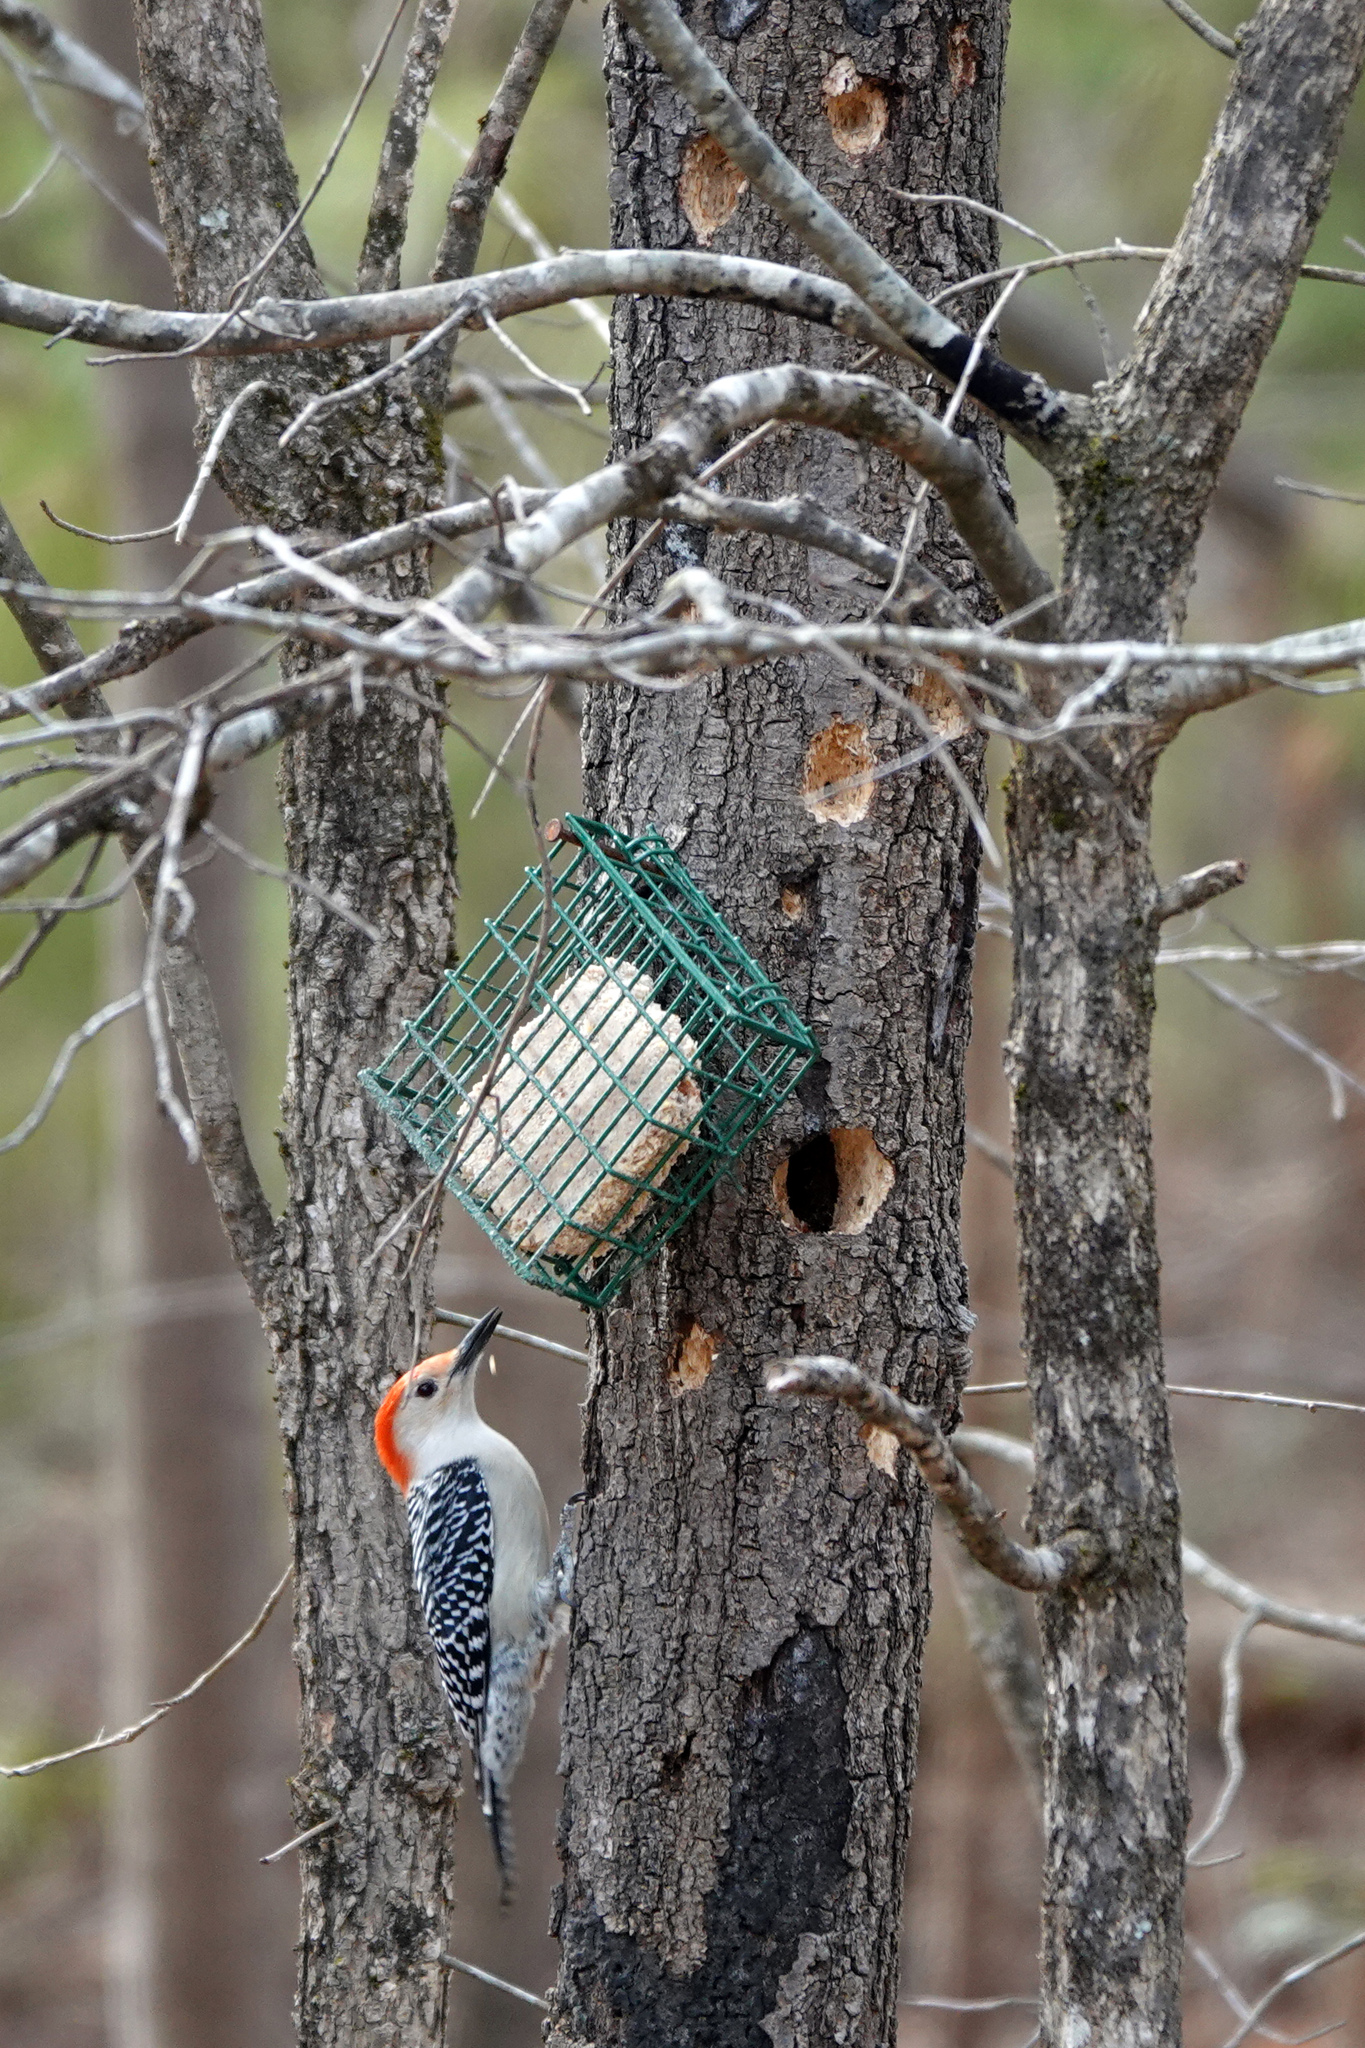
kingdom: Animalia
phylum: Chordata
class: Aves
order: Piciformes
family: Picidae
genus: Melanerpes
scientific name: Melanerpes carolinus
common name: Red-bellied woodpecker
